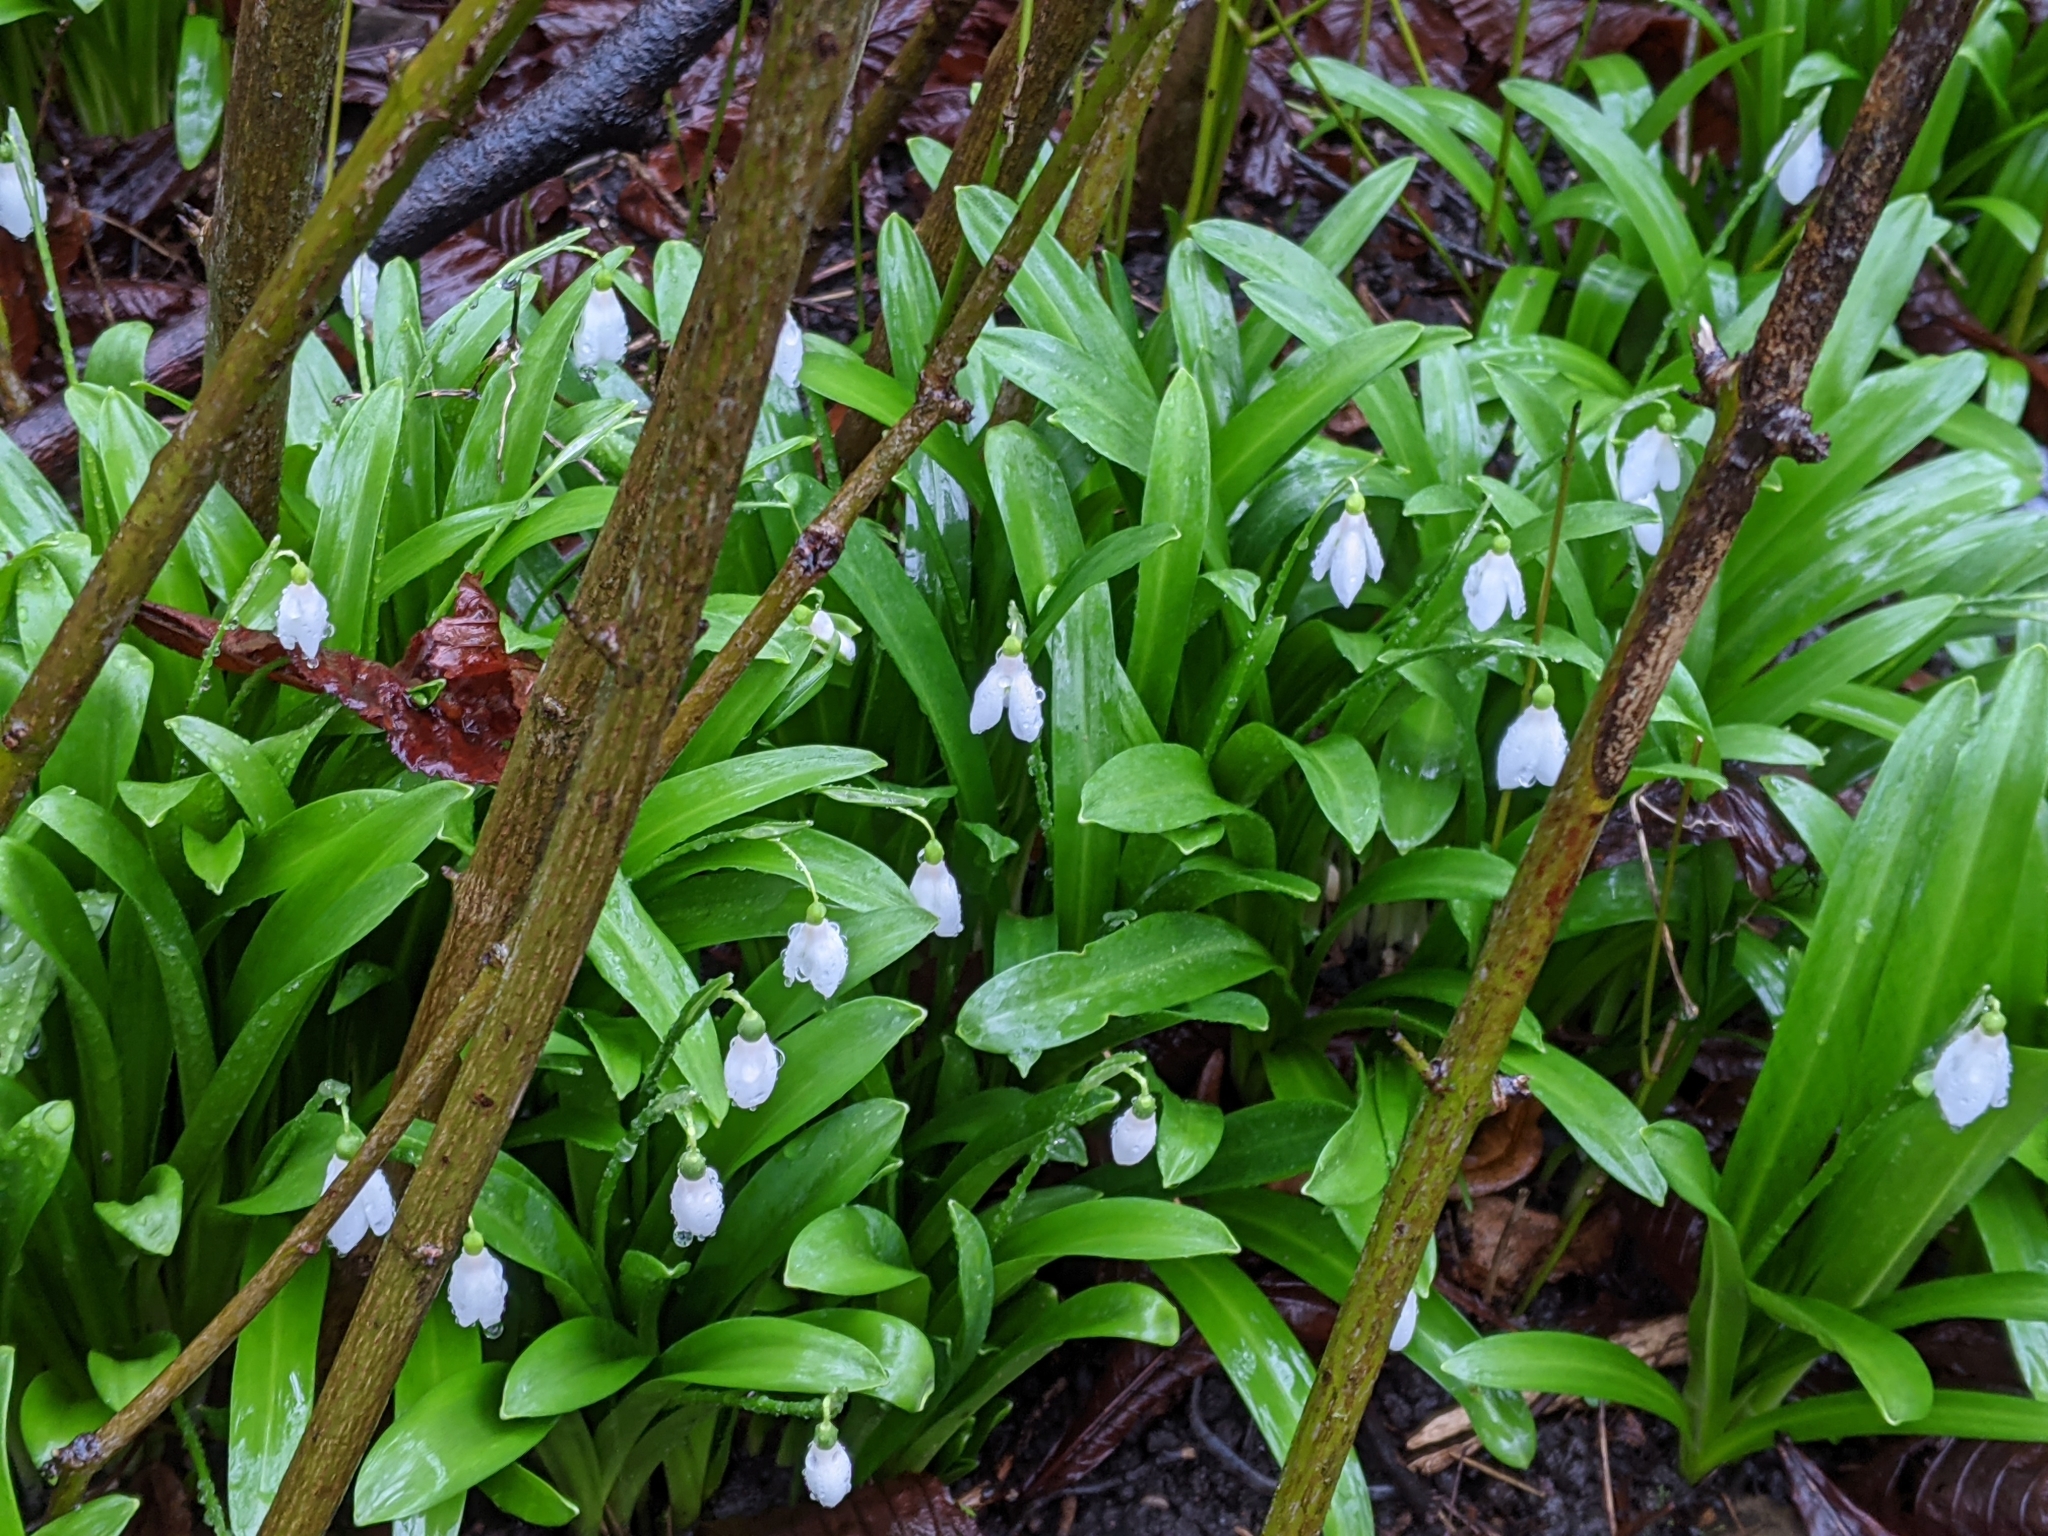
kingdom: Plantae
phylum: Tracheophyta
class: Liliopsida
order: Asparagales
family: Amaryllidaceae
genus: Galanthus
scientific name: Galanthus nivalis
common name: Snowdrop
